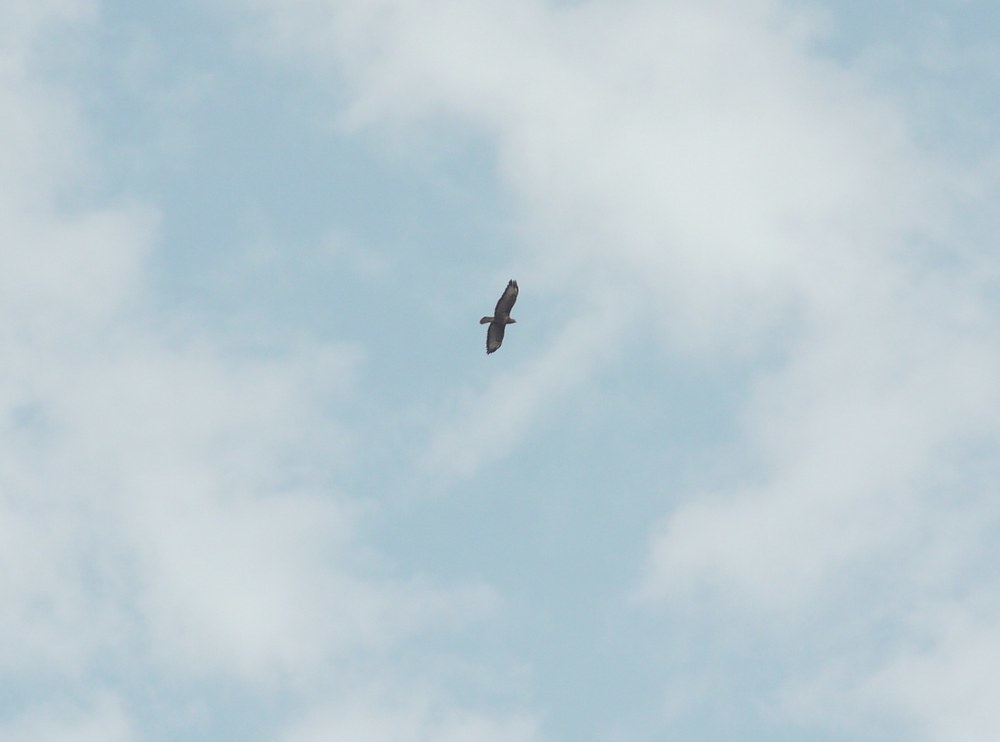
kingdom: Animalia
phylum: Chordata
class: Aves
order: Accipitriformes
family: Accipitridae
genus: Buteo
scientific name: Buteo buteo
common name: Common buzzard
